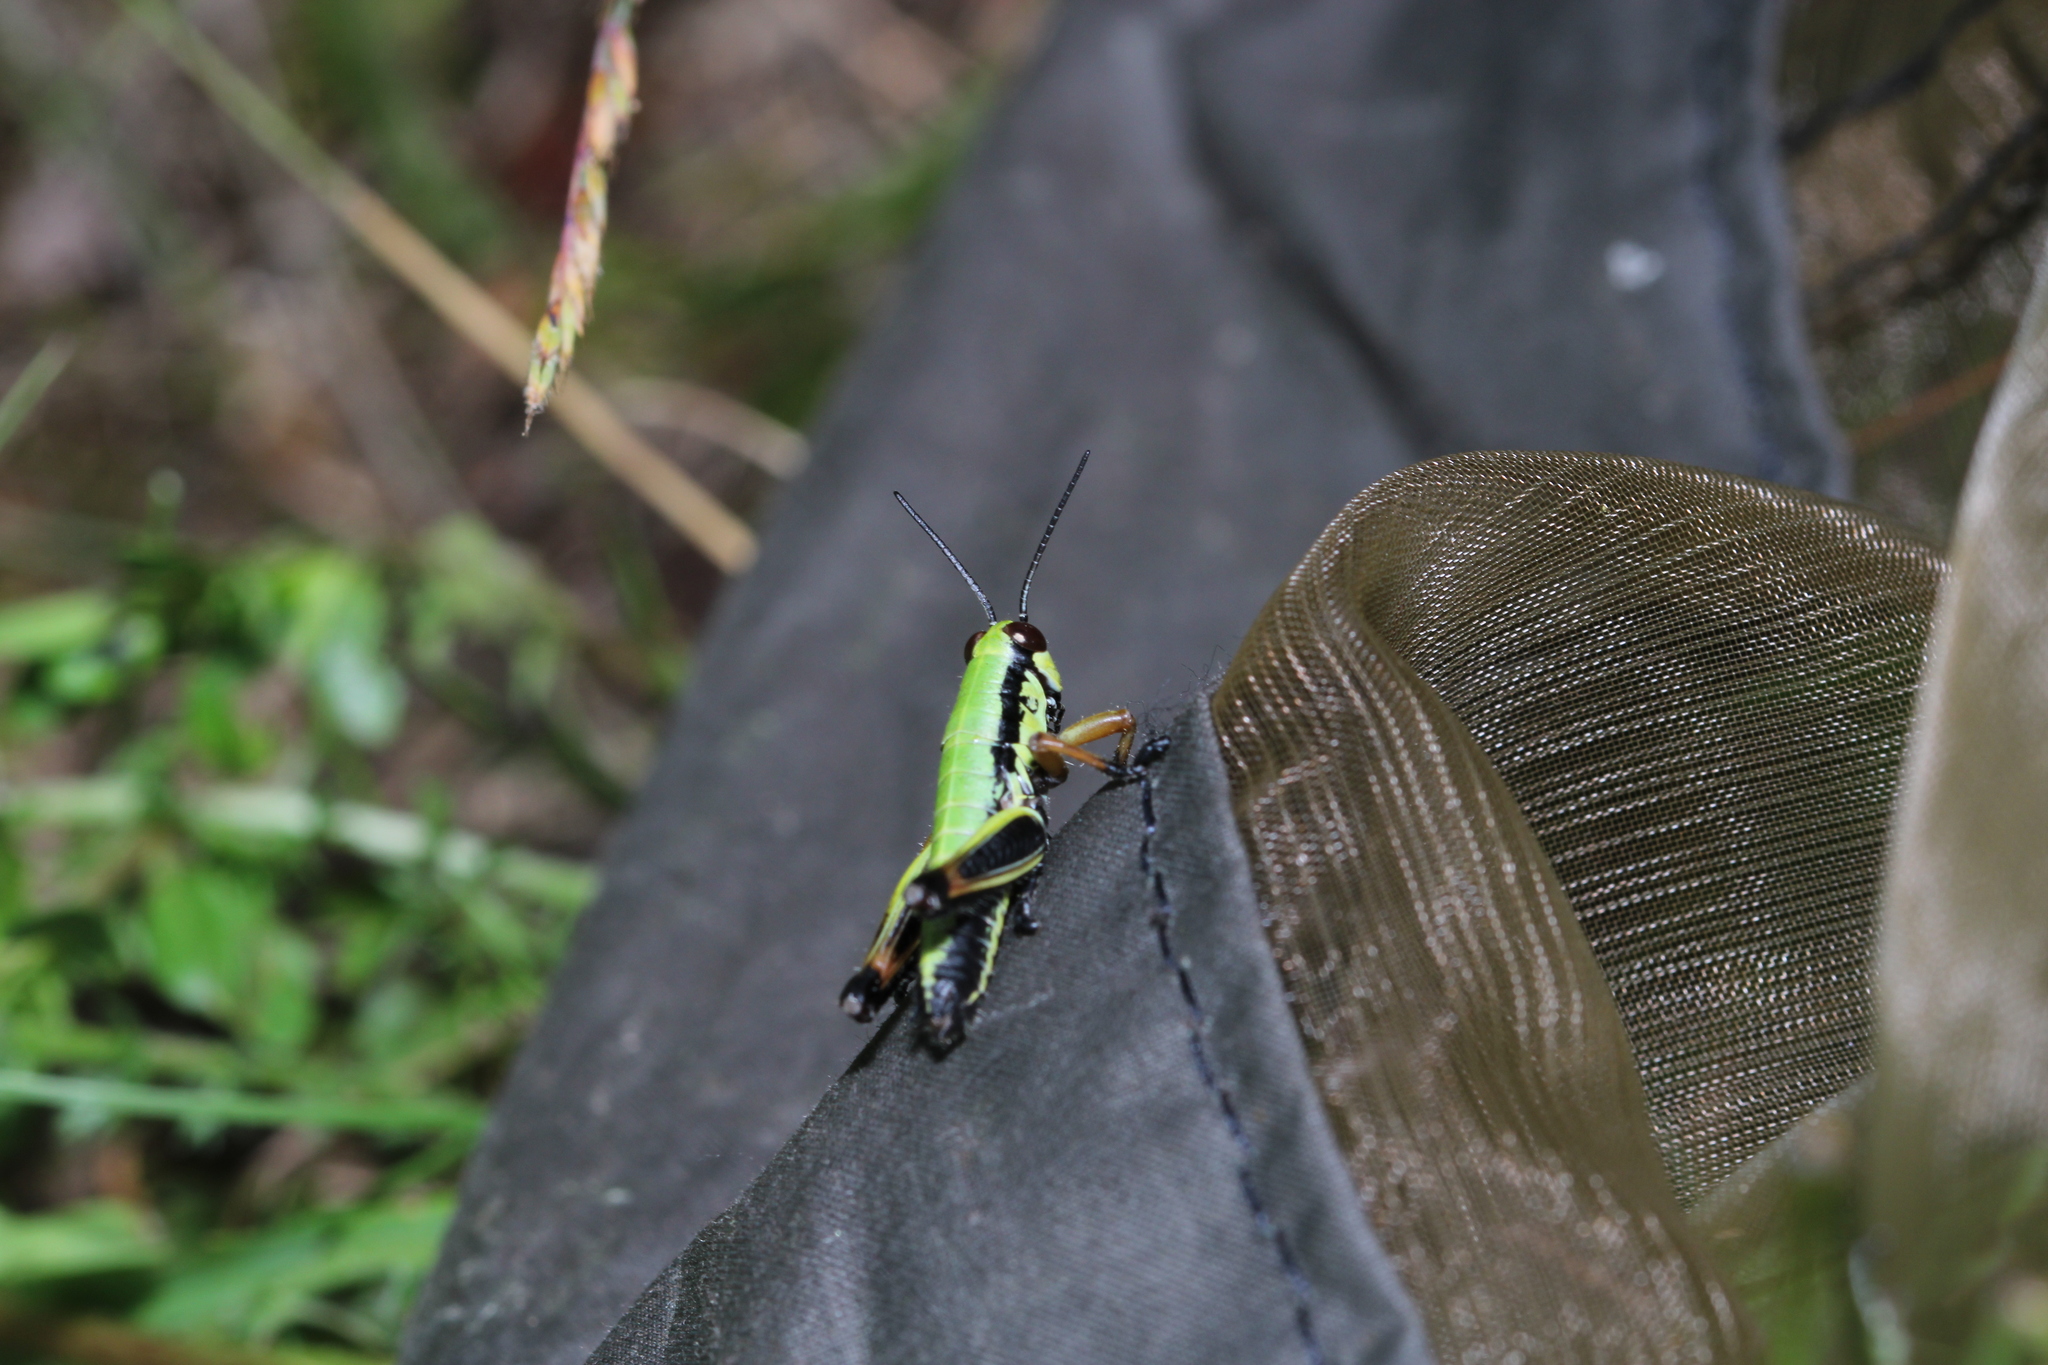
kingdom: Animalia
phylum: Arthropoda
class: Insecta
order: Orthoptera
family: Acrididae
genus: Micropodisma
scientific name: Micropodisma salamandra
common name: Foothill mountain grasshopper
